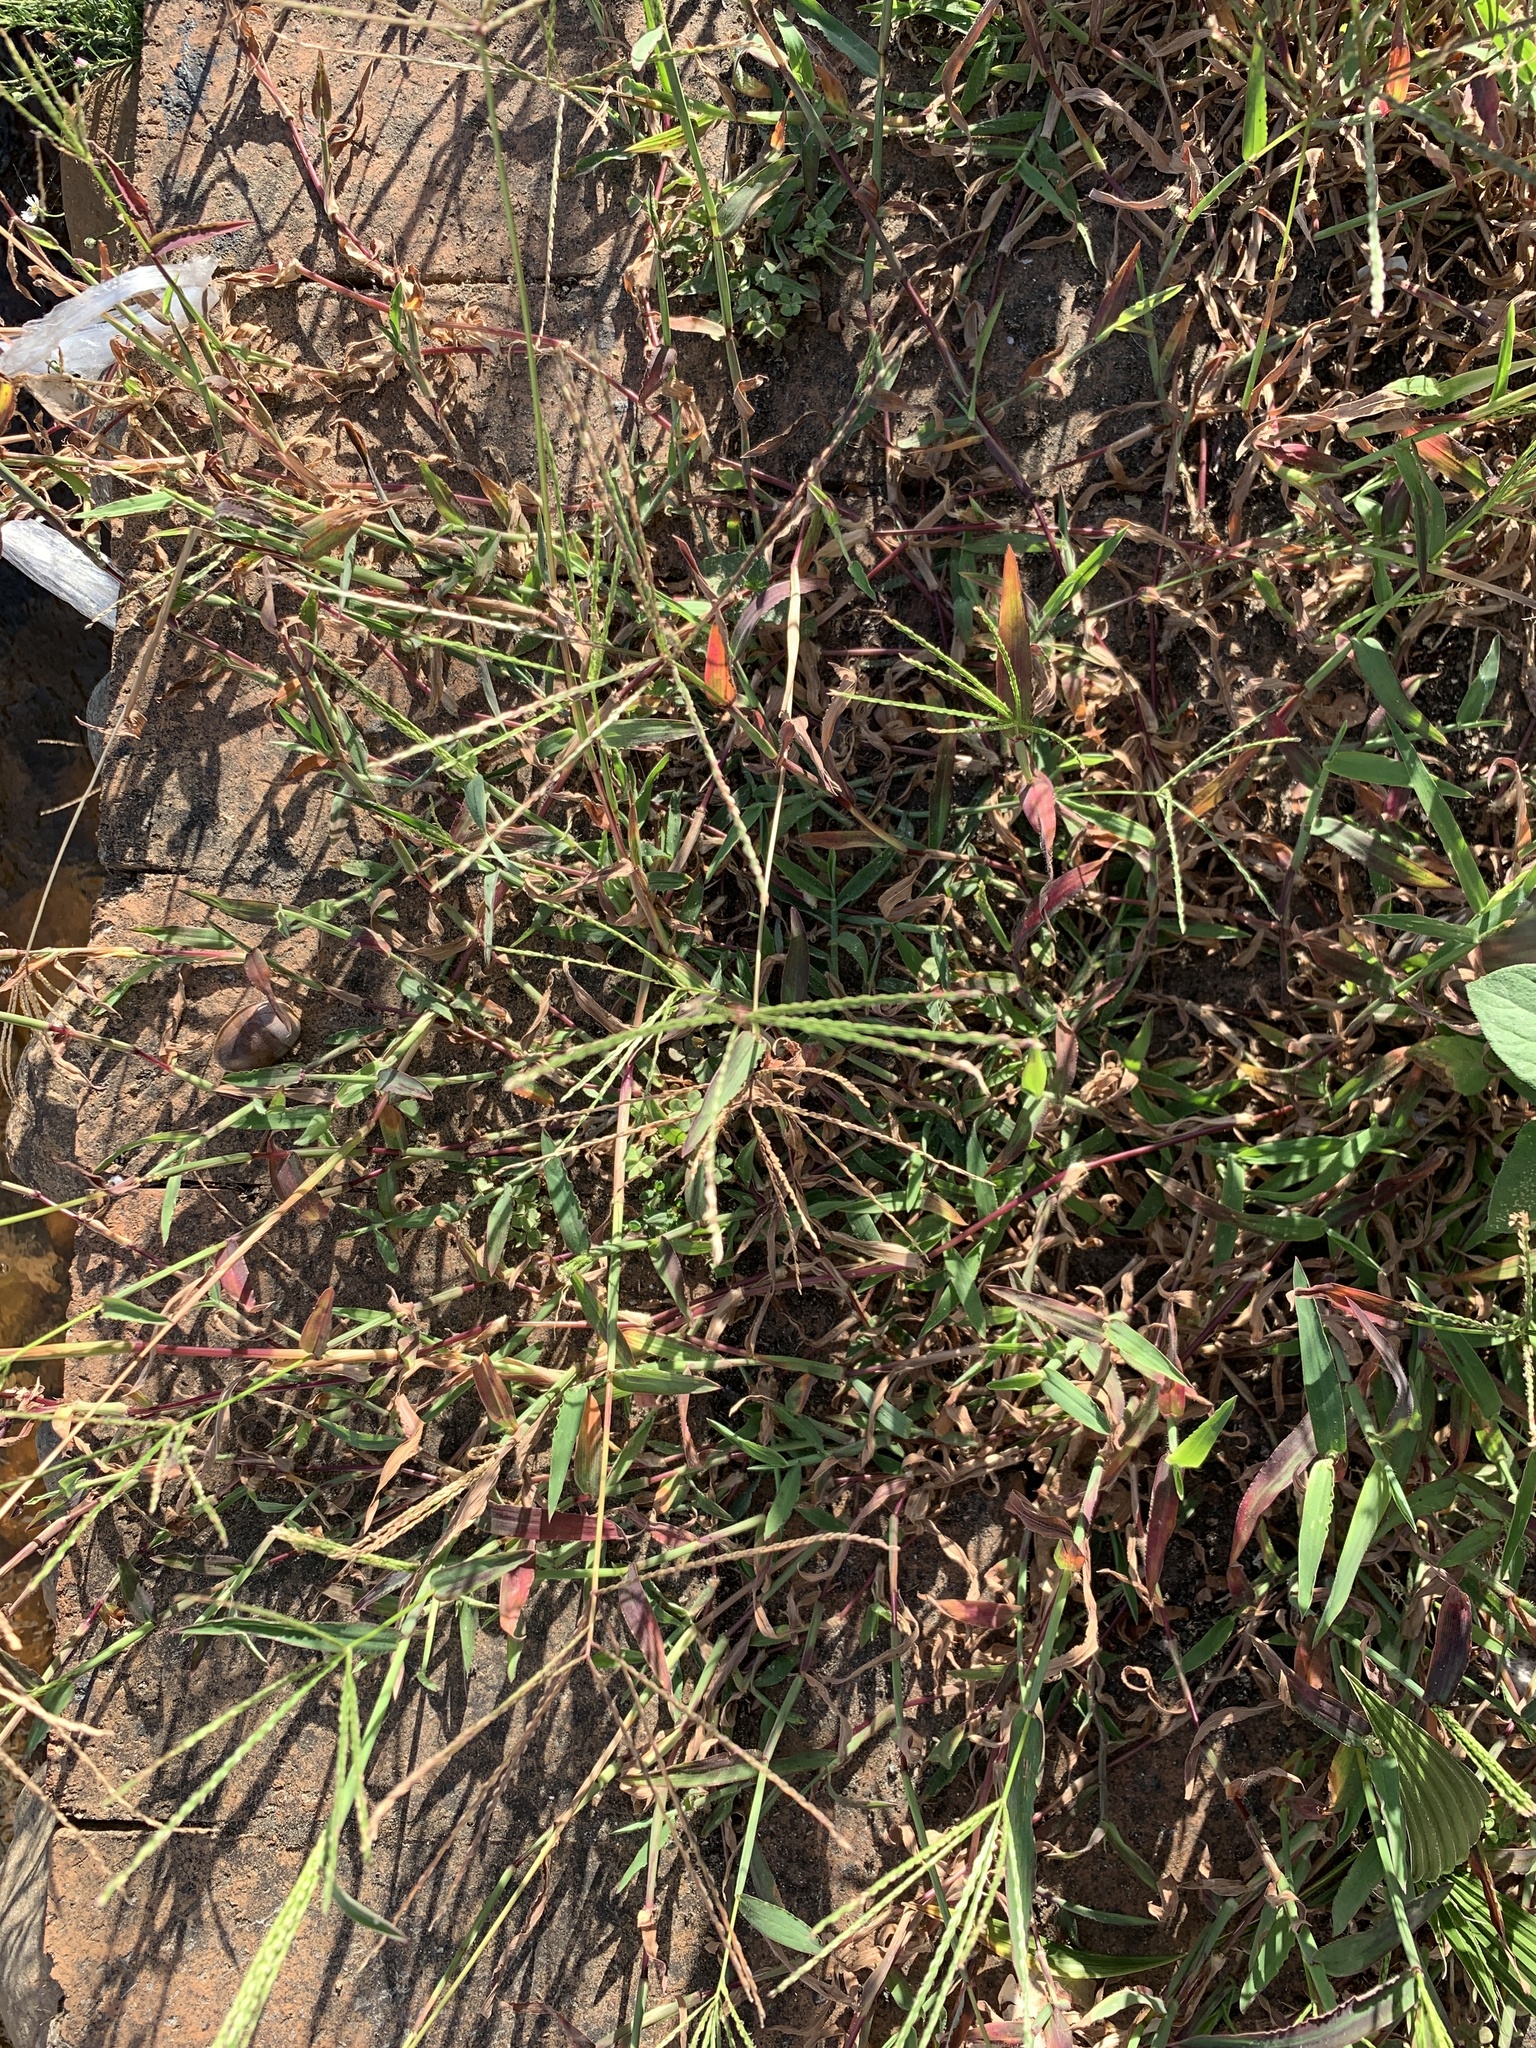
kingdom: Plantae
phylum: Tracheophyta
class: Liliopsida
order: Poales
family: Poaceae
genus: Digitaria
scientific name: Digitaria sanguinalis
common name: Hairy crabgrass
